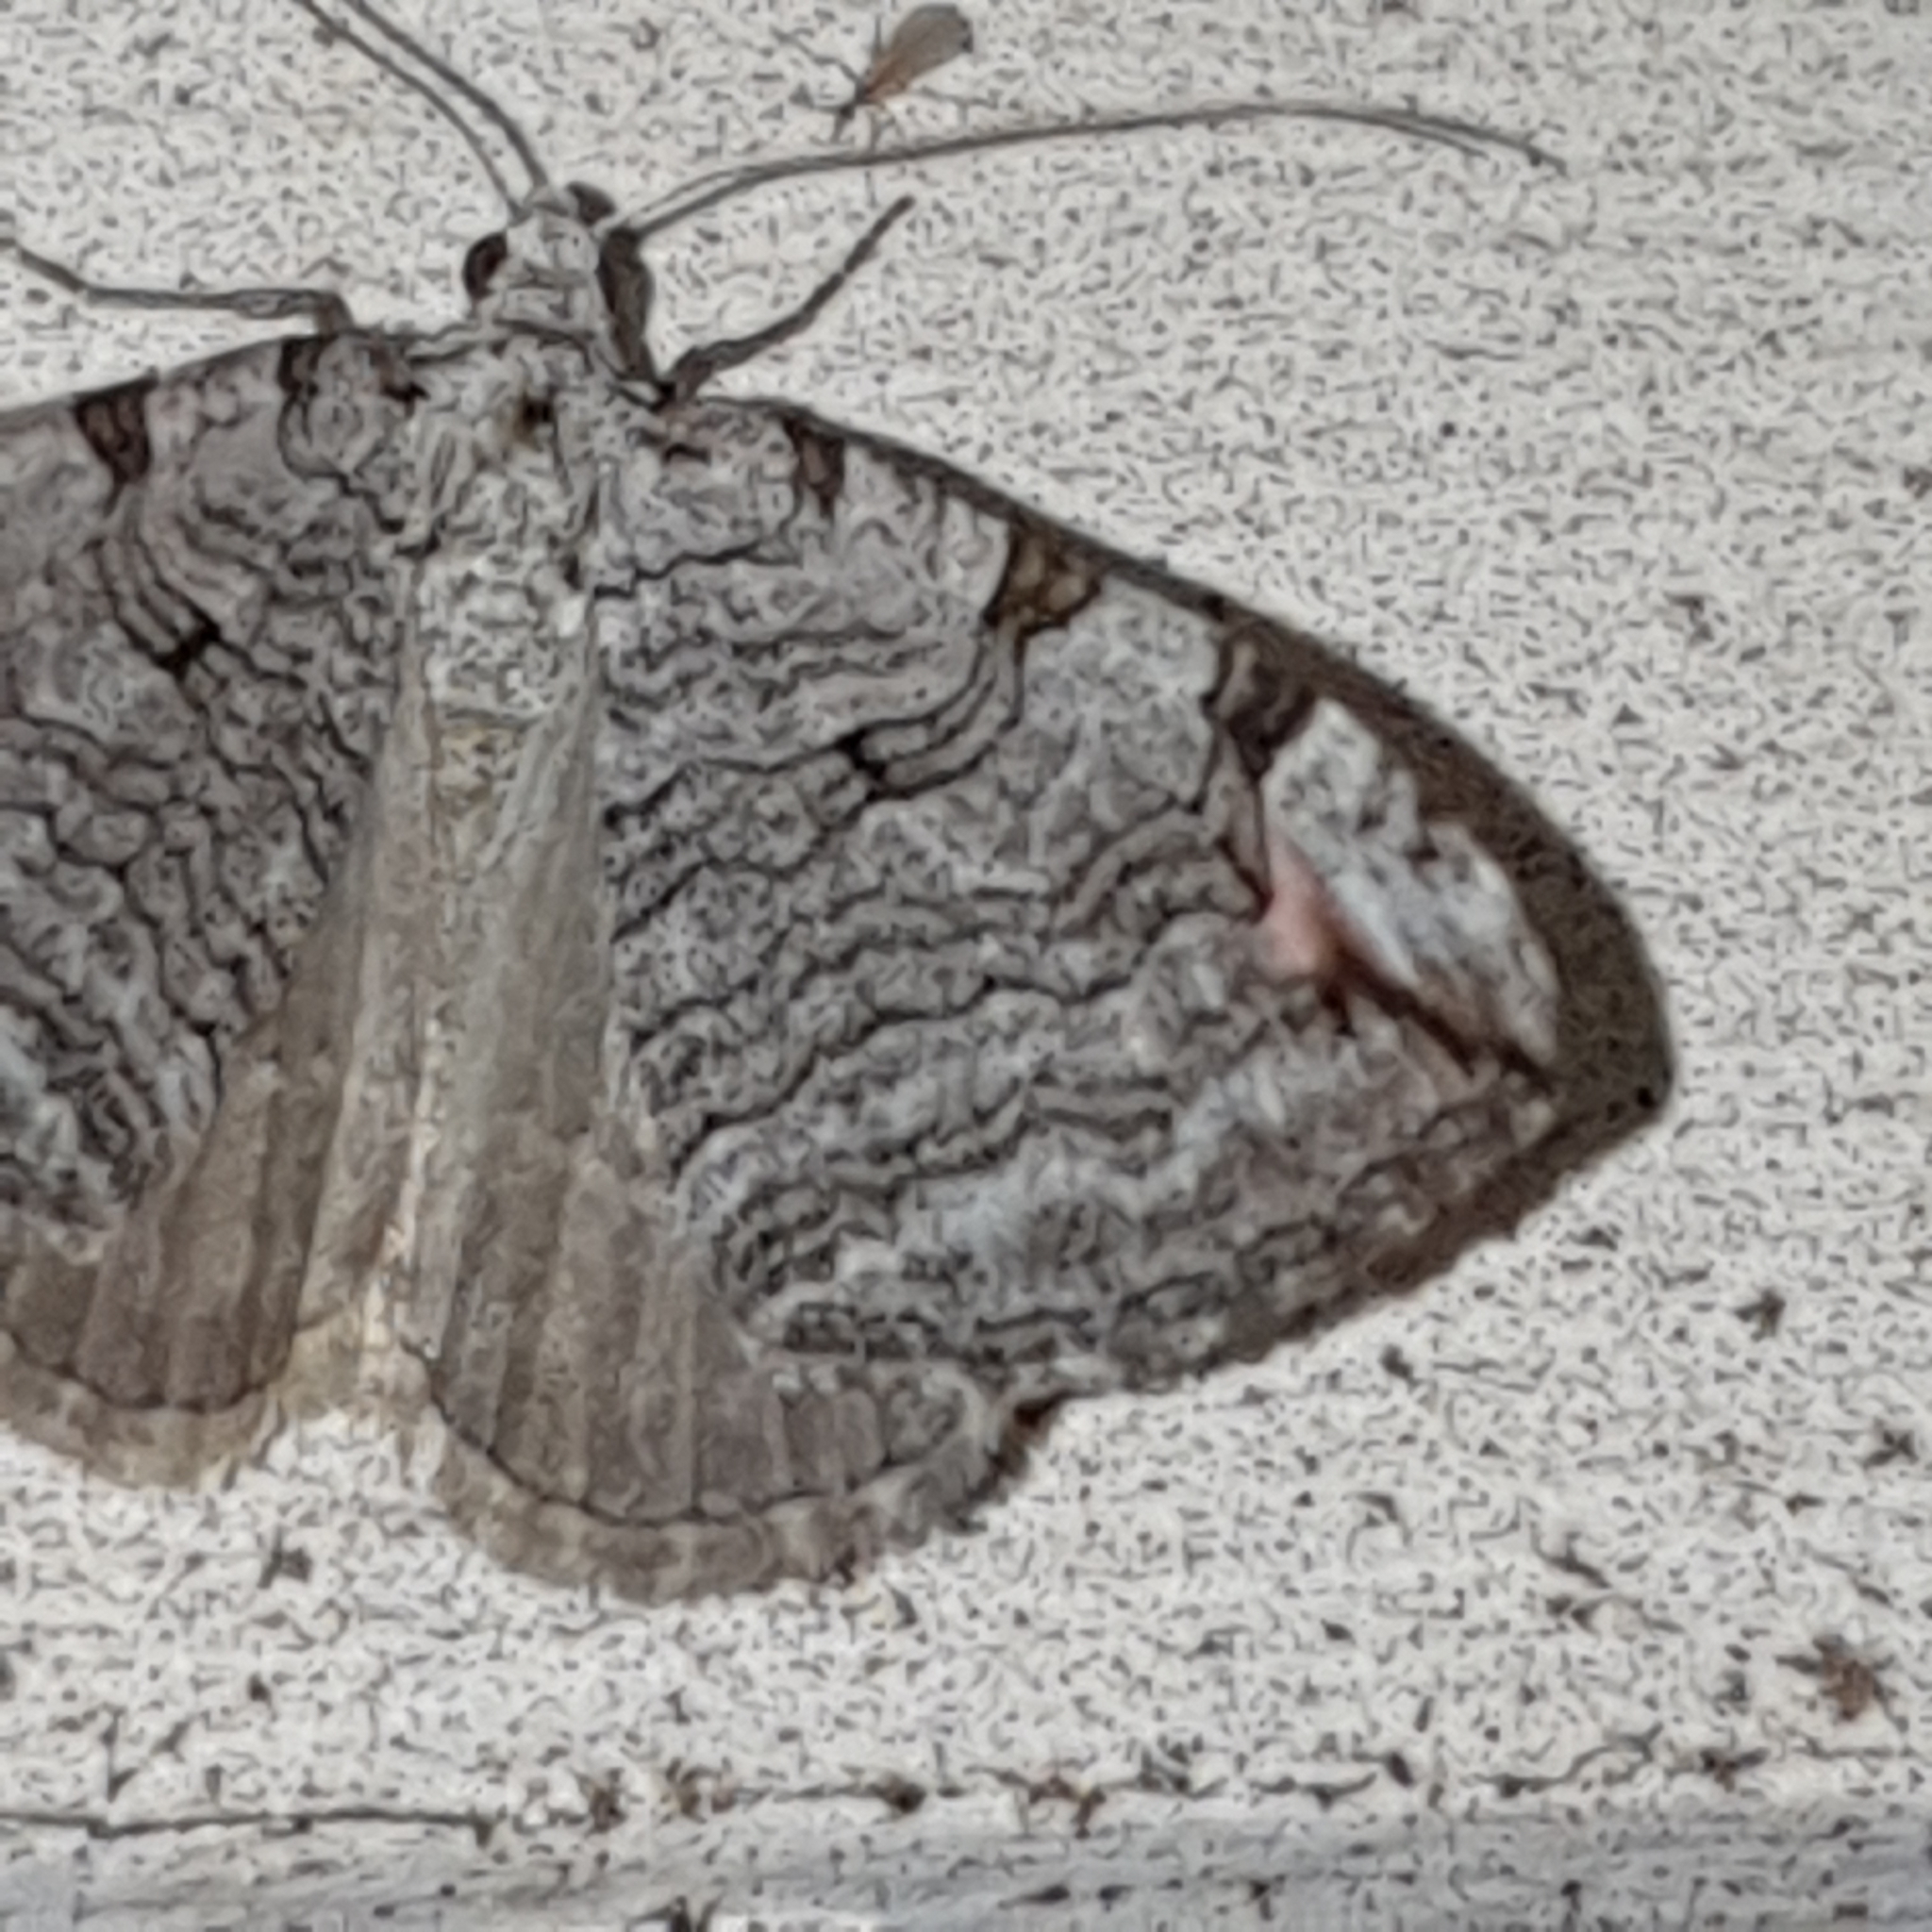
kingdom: Animalia
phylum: Arthropoda
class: Insecta
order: Lepidoptera
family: Geometridae
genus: Aplocera
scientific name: Aplocera plagiata
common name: Treble-bar
